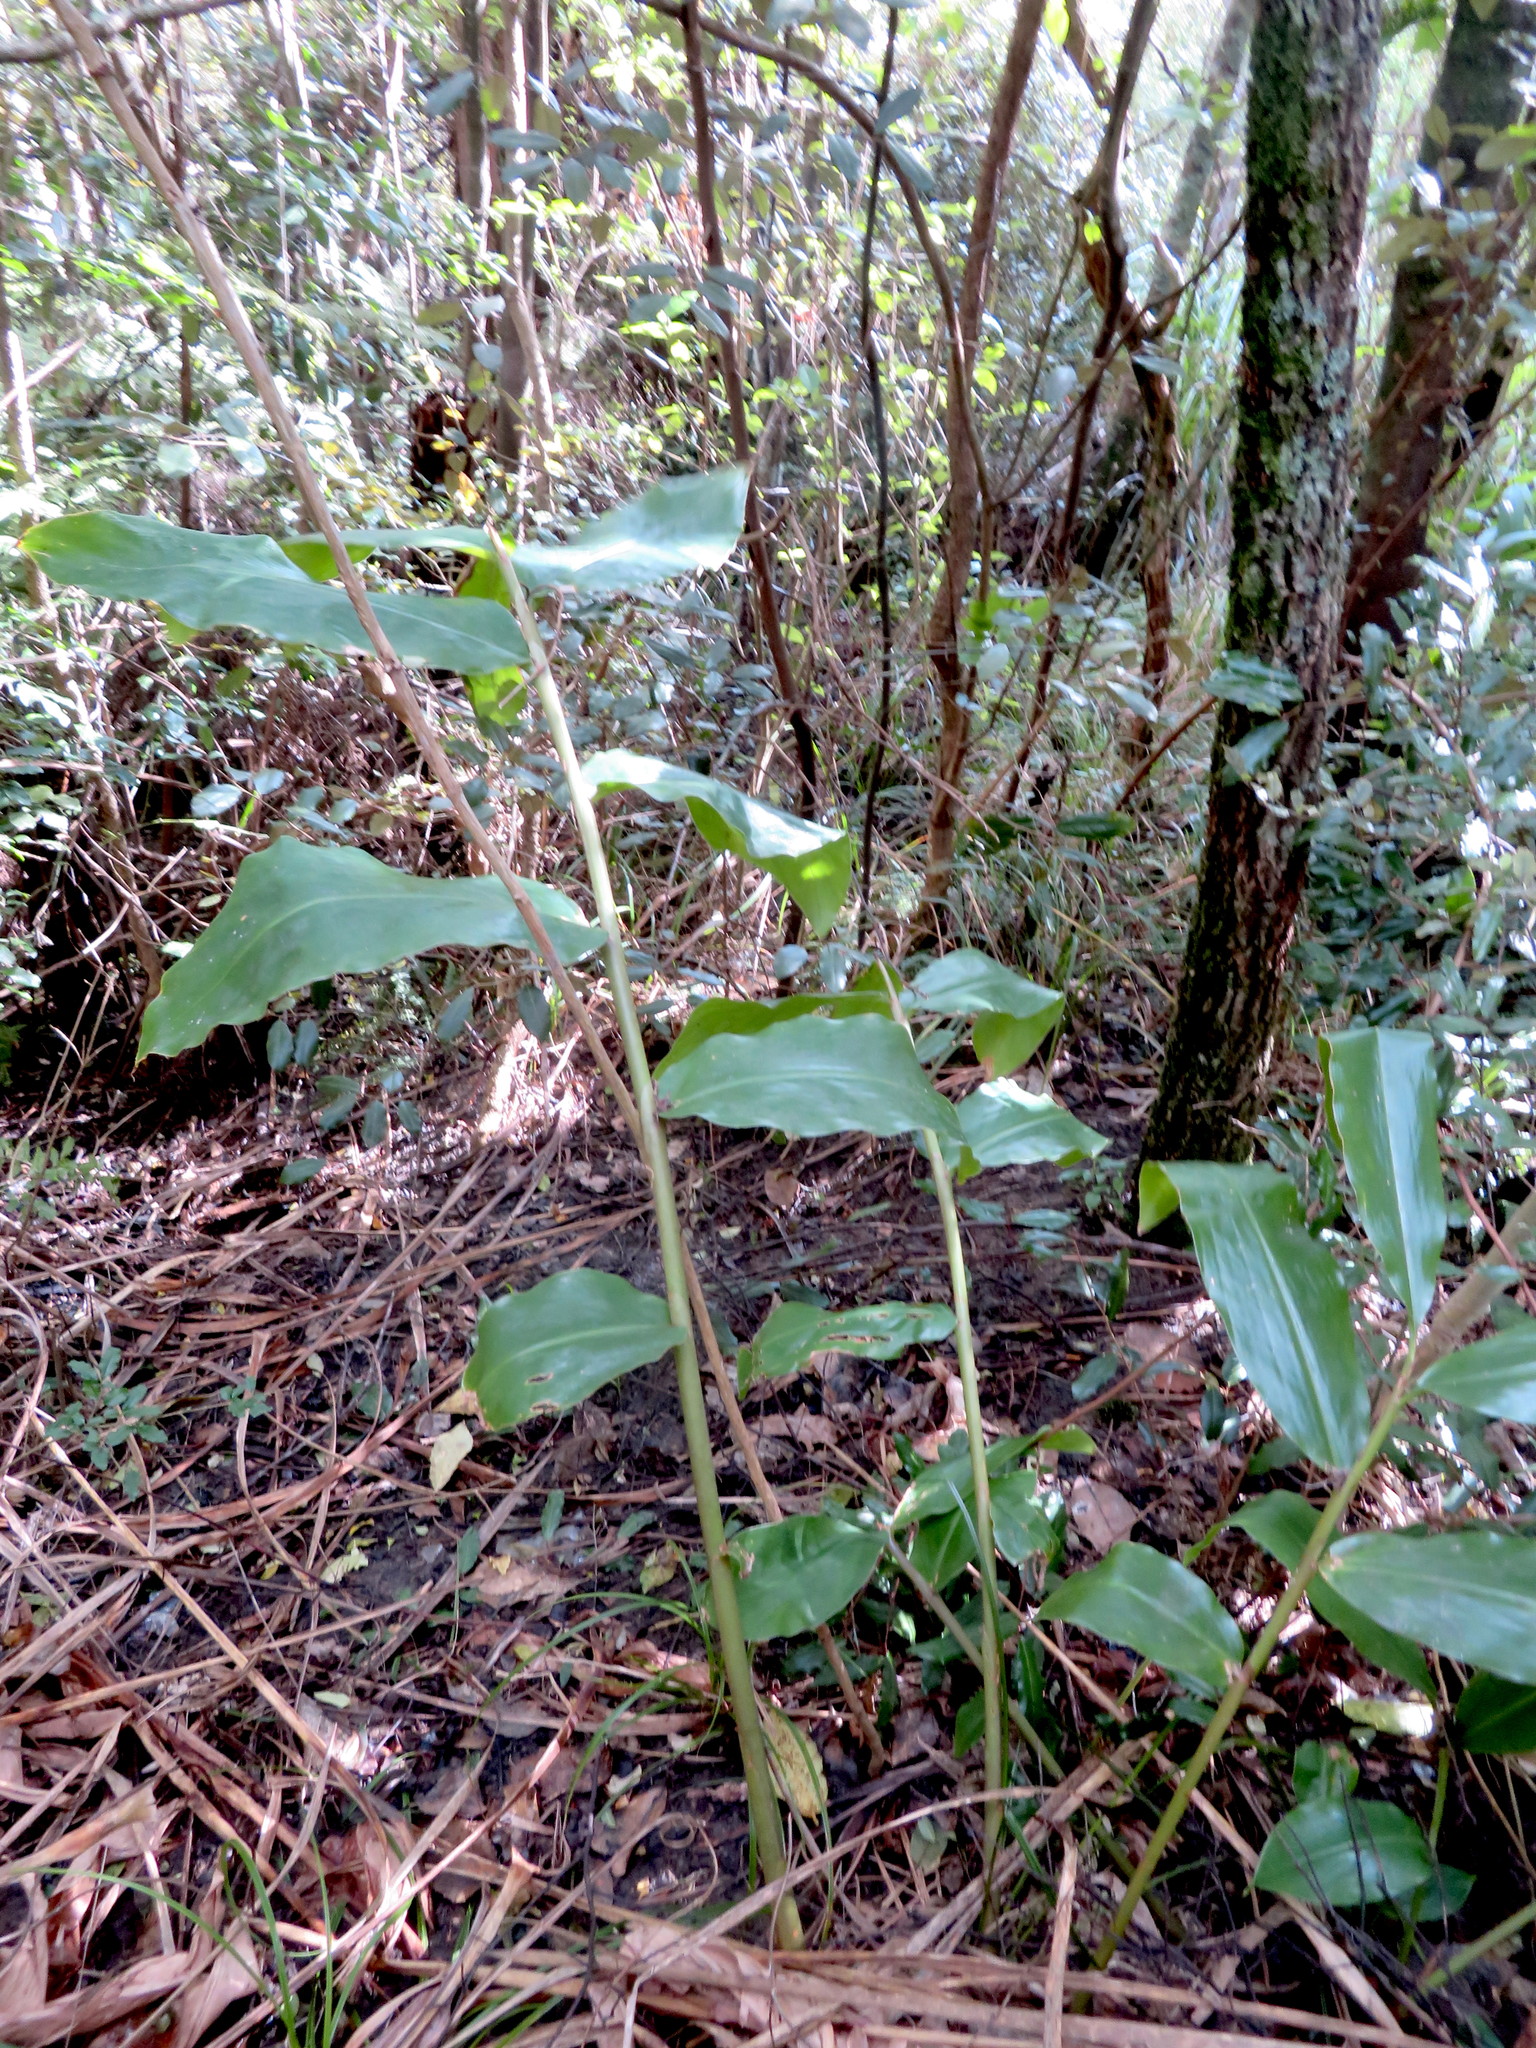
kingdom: Plantae
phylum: Tracheophyta
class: Liliopsida
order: Zingiberales
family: Zingiberaceae
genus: Hedychium
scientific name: Hedychium gardnerianum
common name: Himalayan ginger
